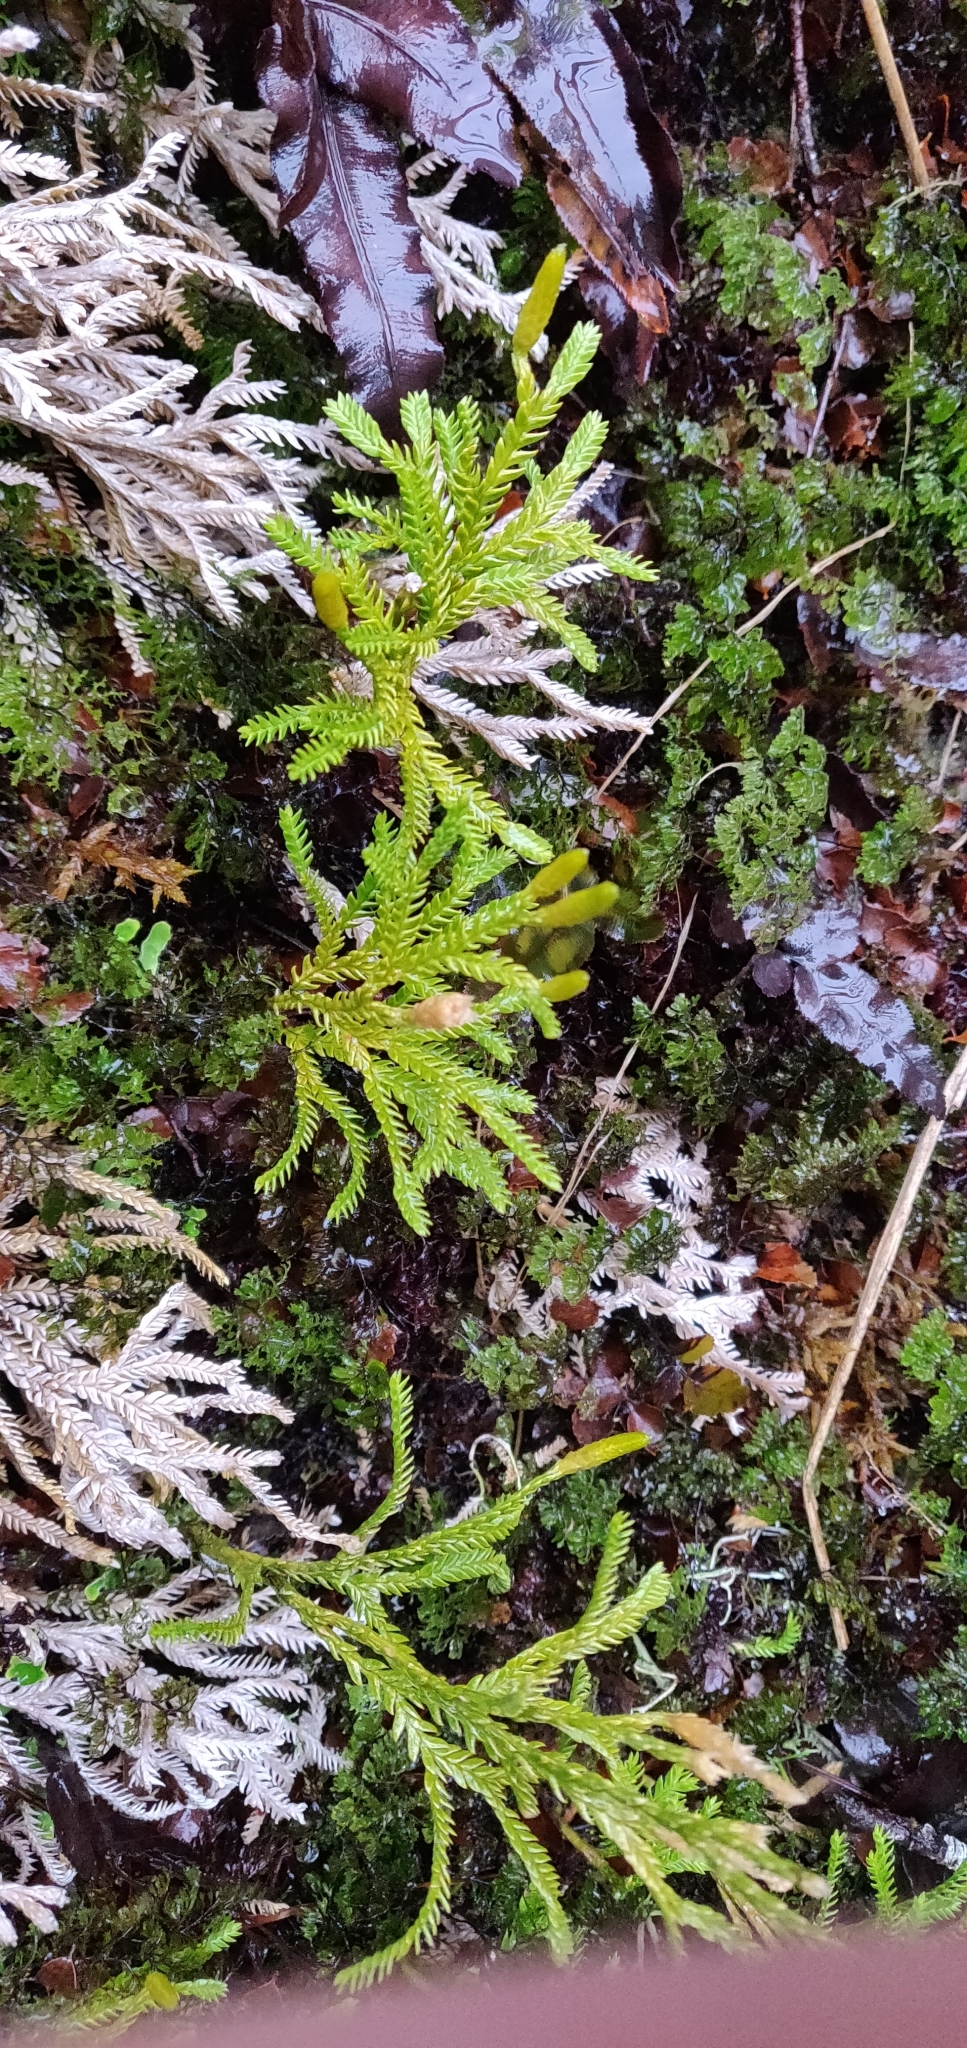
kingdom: Plantae
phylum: Tracheophyta
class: Lycopodiopsida
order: Lycopodiales
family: Lycopodiaceae
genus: Diphasium
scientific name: Diphasium scariosum
